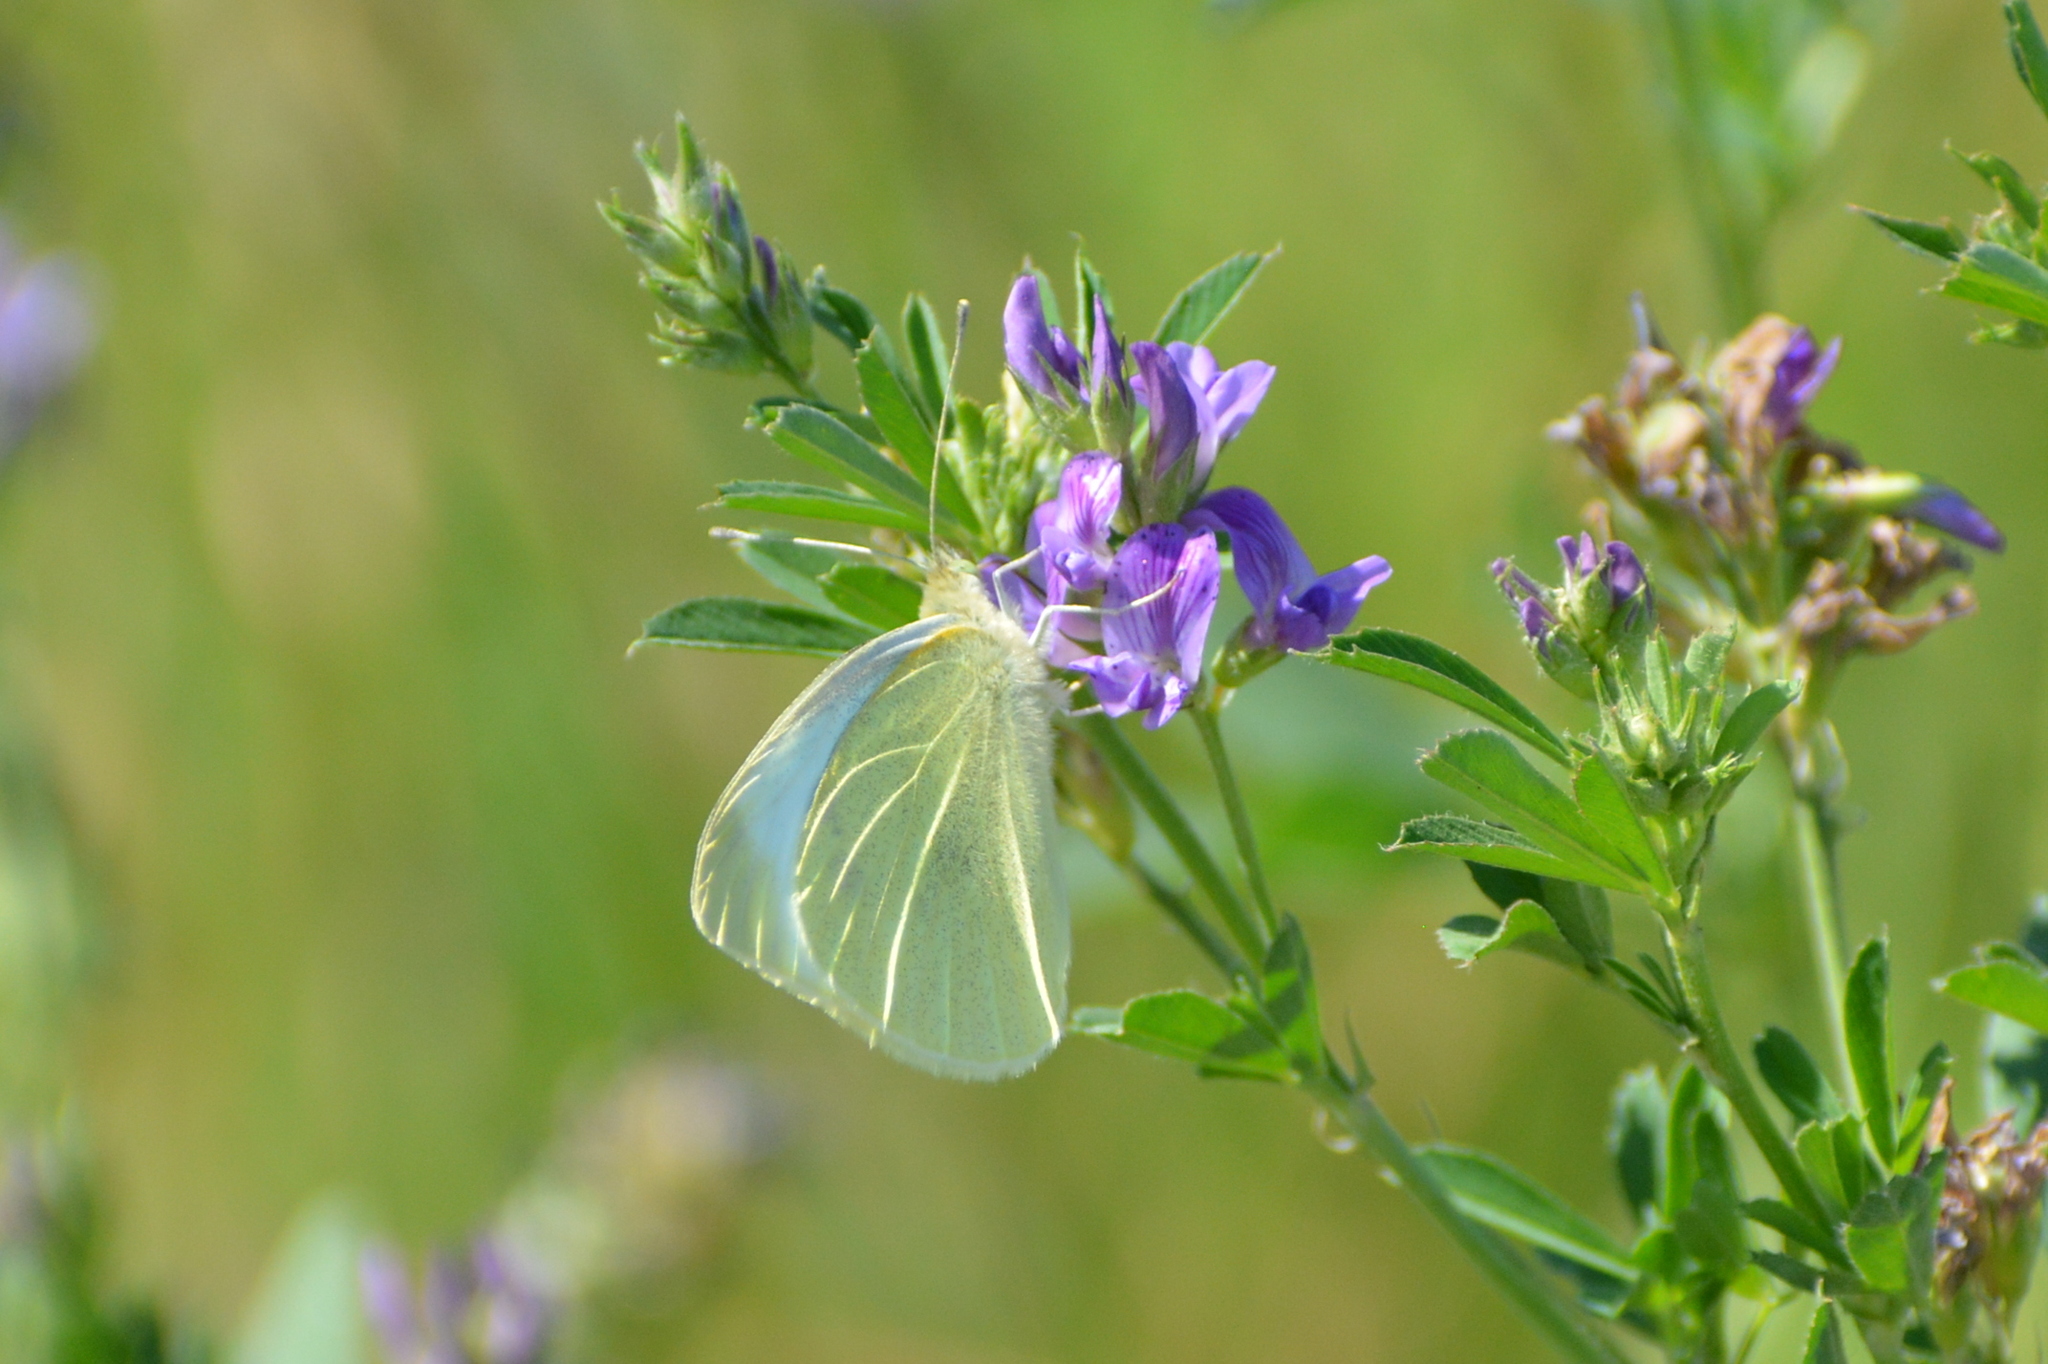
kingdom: Animalia
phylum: Arthropoda
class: Insecta
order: Lepidoptera
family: Pieridae
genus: Pieris
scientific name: Pieris rapae
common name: Small white
